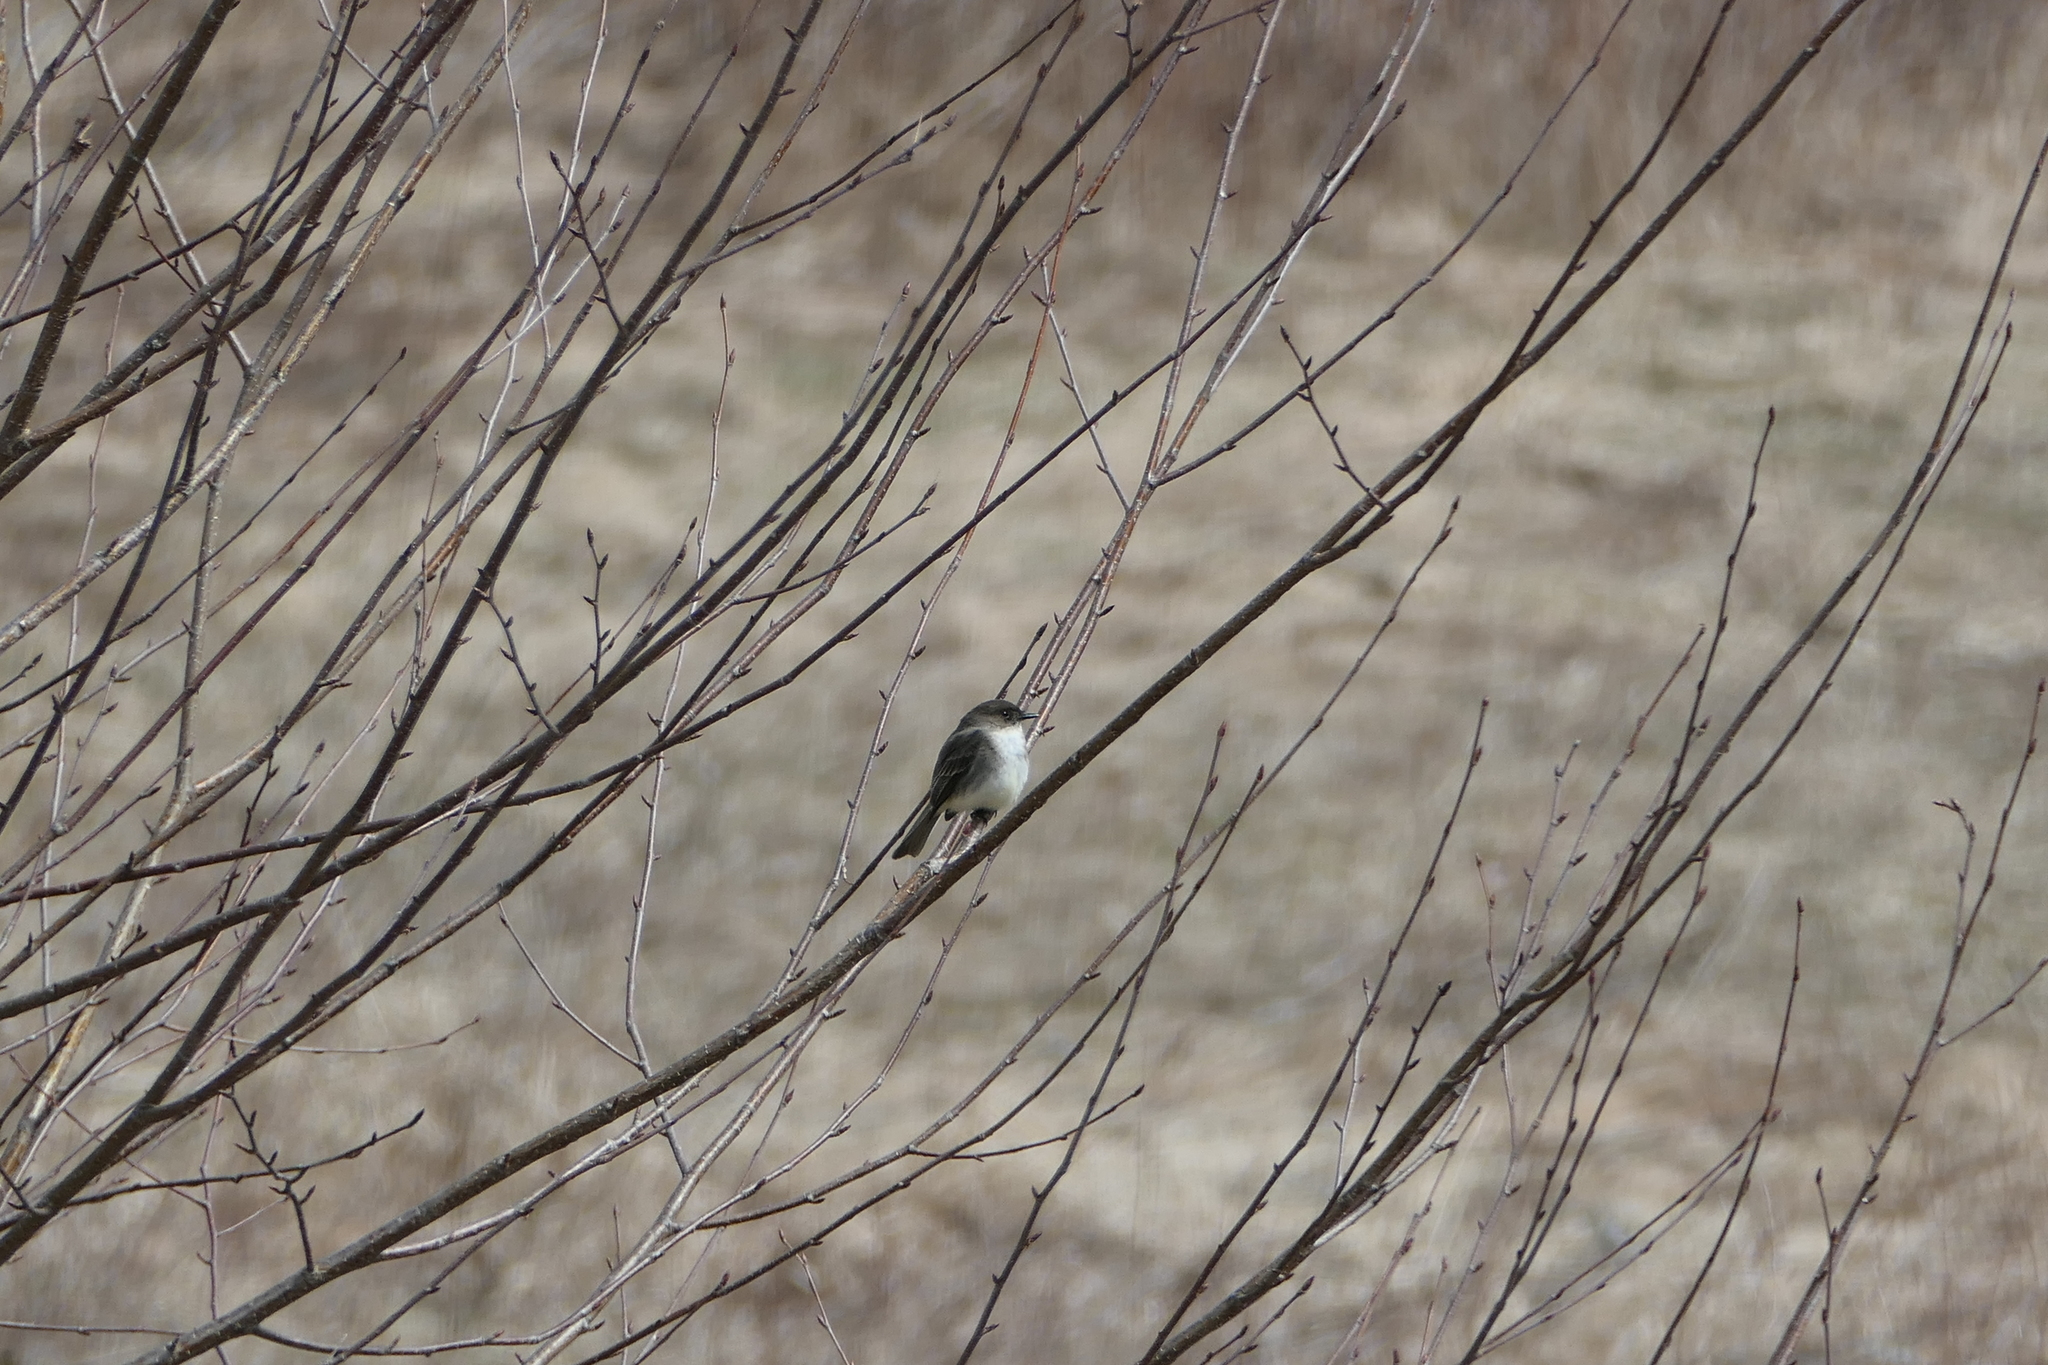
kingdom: Animalia
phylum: Chordata
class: Aves
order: Passeriformes
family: Tyrannidae
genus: Sayornis
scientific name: Sayornis phoebe
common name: Eastern phoebe
